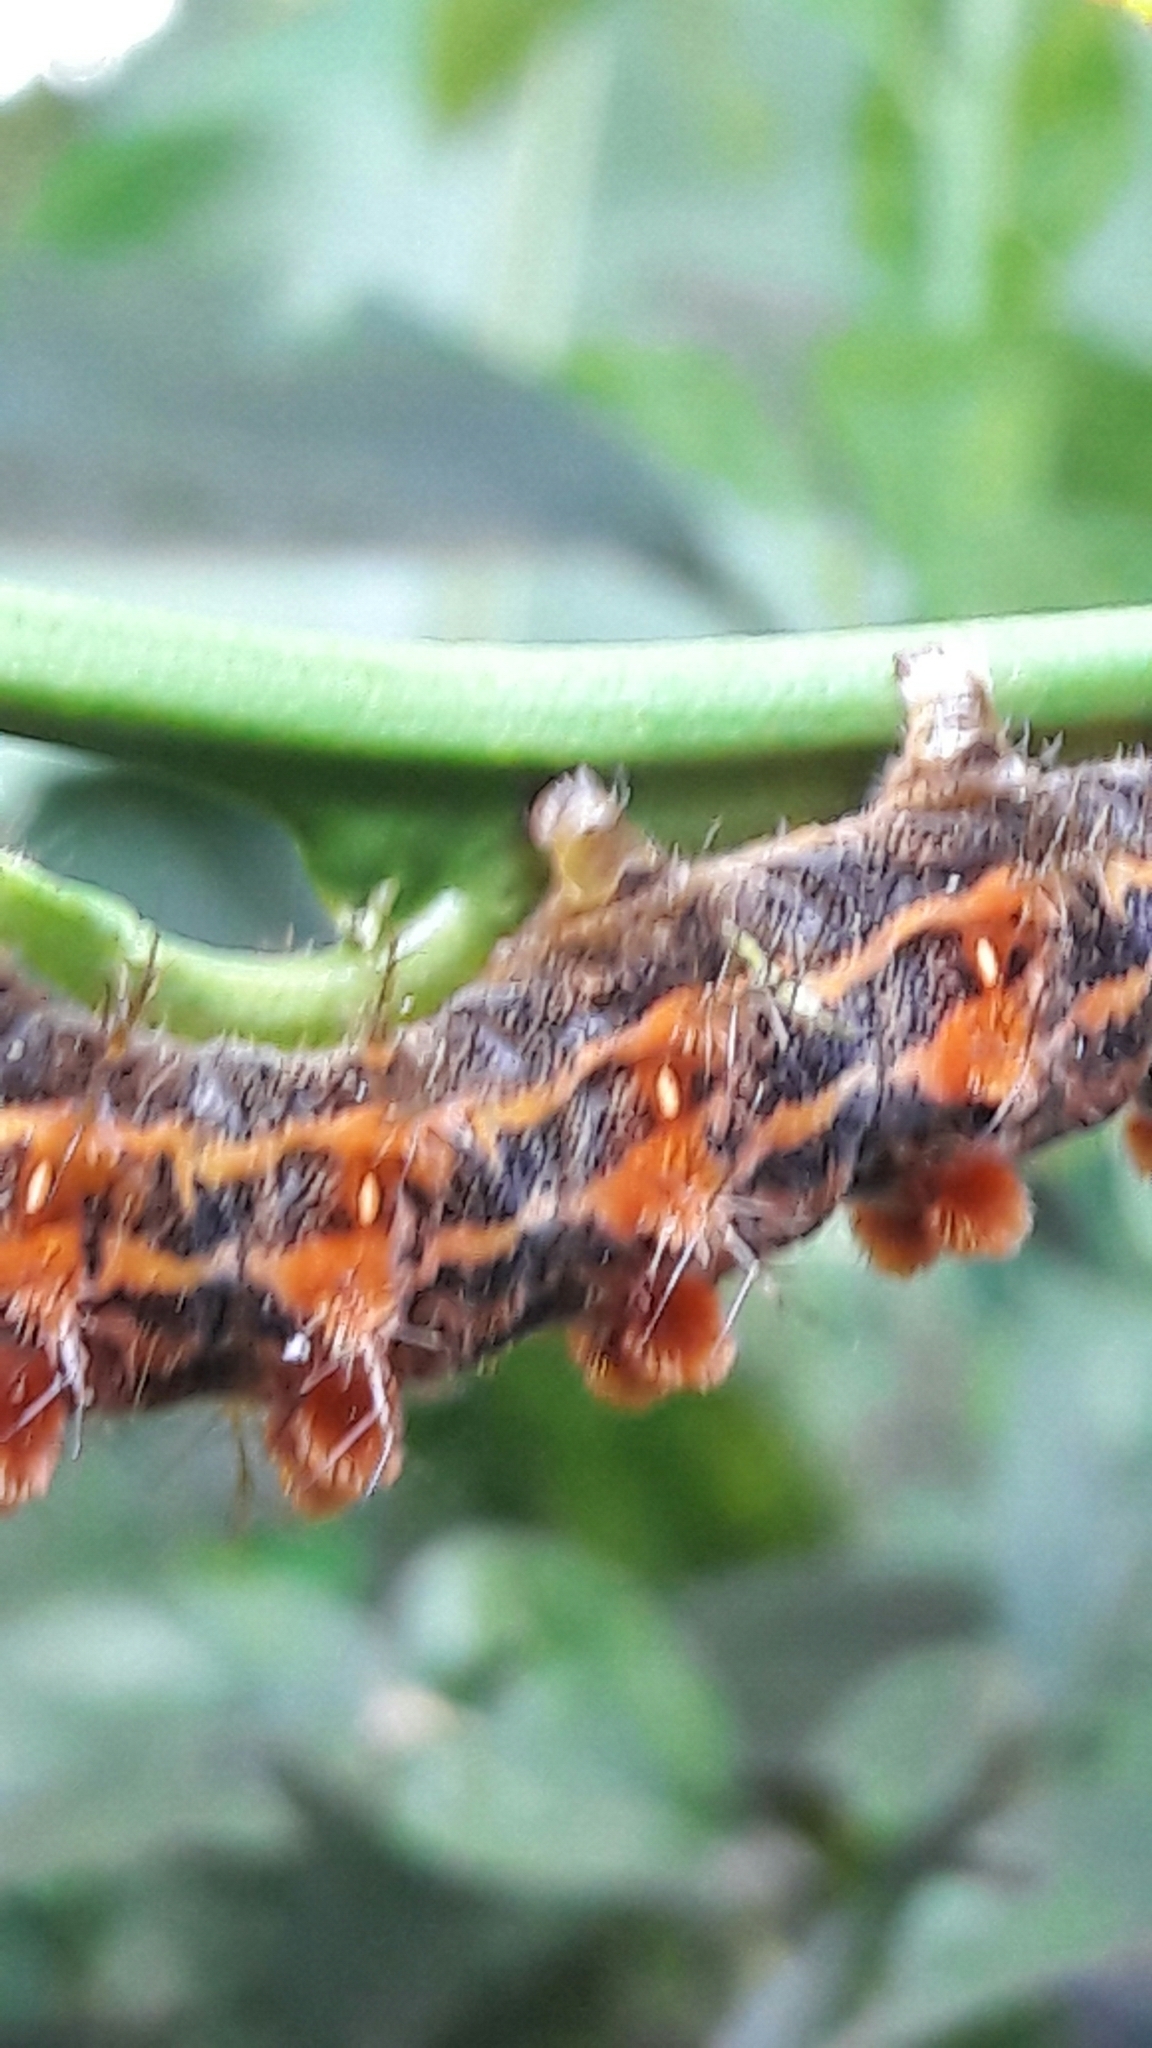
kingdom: Animalia
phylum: Arthropoda
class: Insecta
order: Lepidoptera
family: Nymphalidae
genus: Dione
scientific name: Dione vanillae
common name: Gulf fritillary
